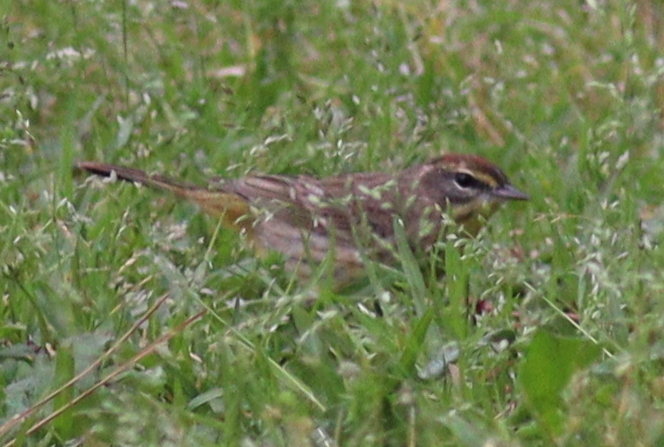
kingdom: Animalia
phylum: Chordata
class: Aves
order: Passeriformes
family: Parulidae
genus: Setophaga
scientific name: Setophaga palmarum
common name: Palm warbler
